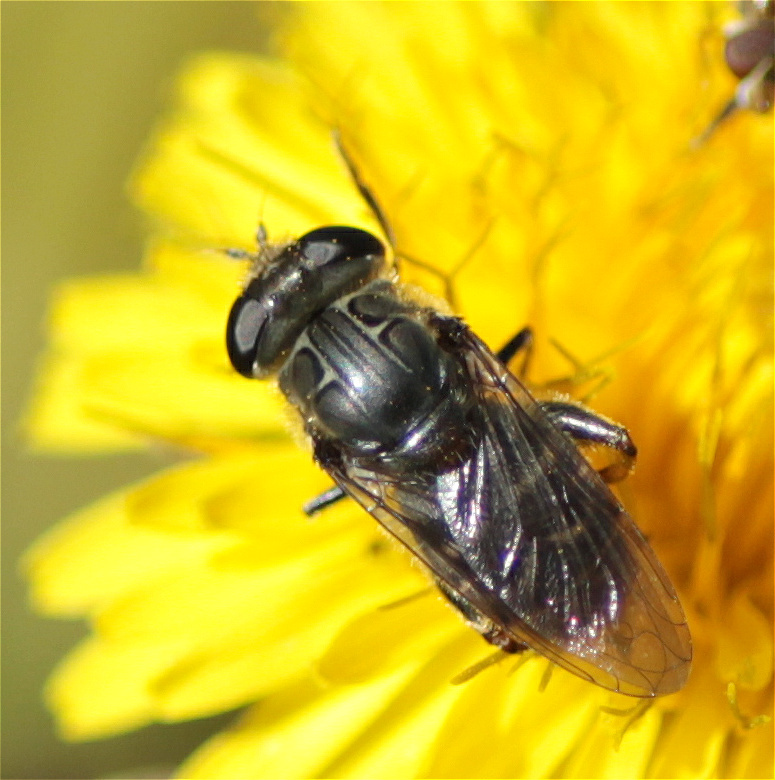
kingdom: Animalia
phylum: Arthropoda
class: Insecta
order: Diptera
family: Syrphidae
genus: Asemosyrphus
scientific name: Asemosyrphus
